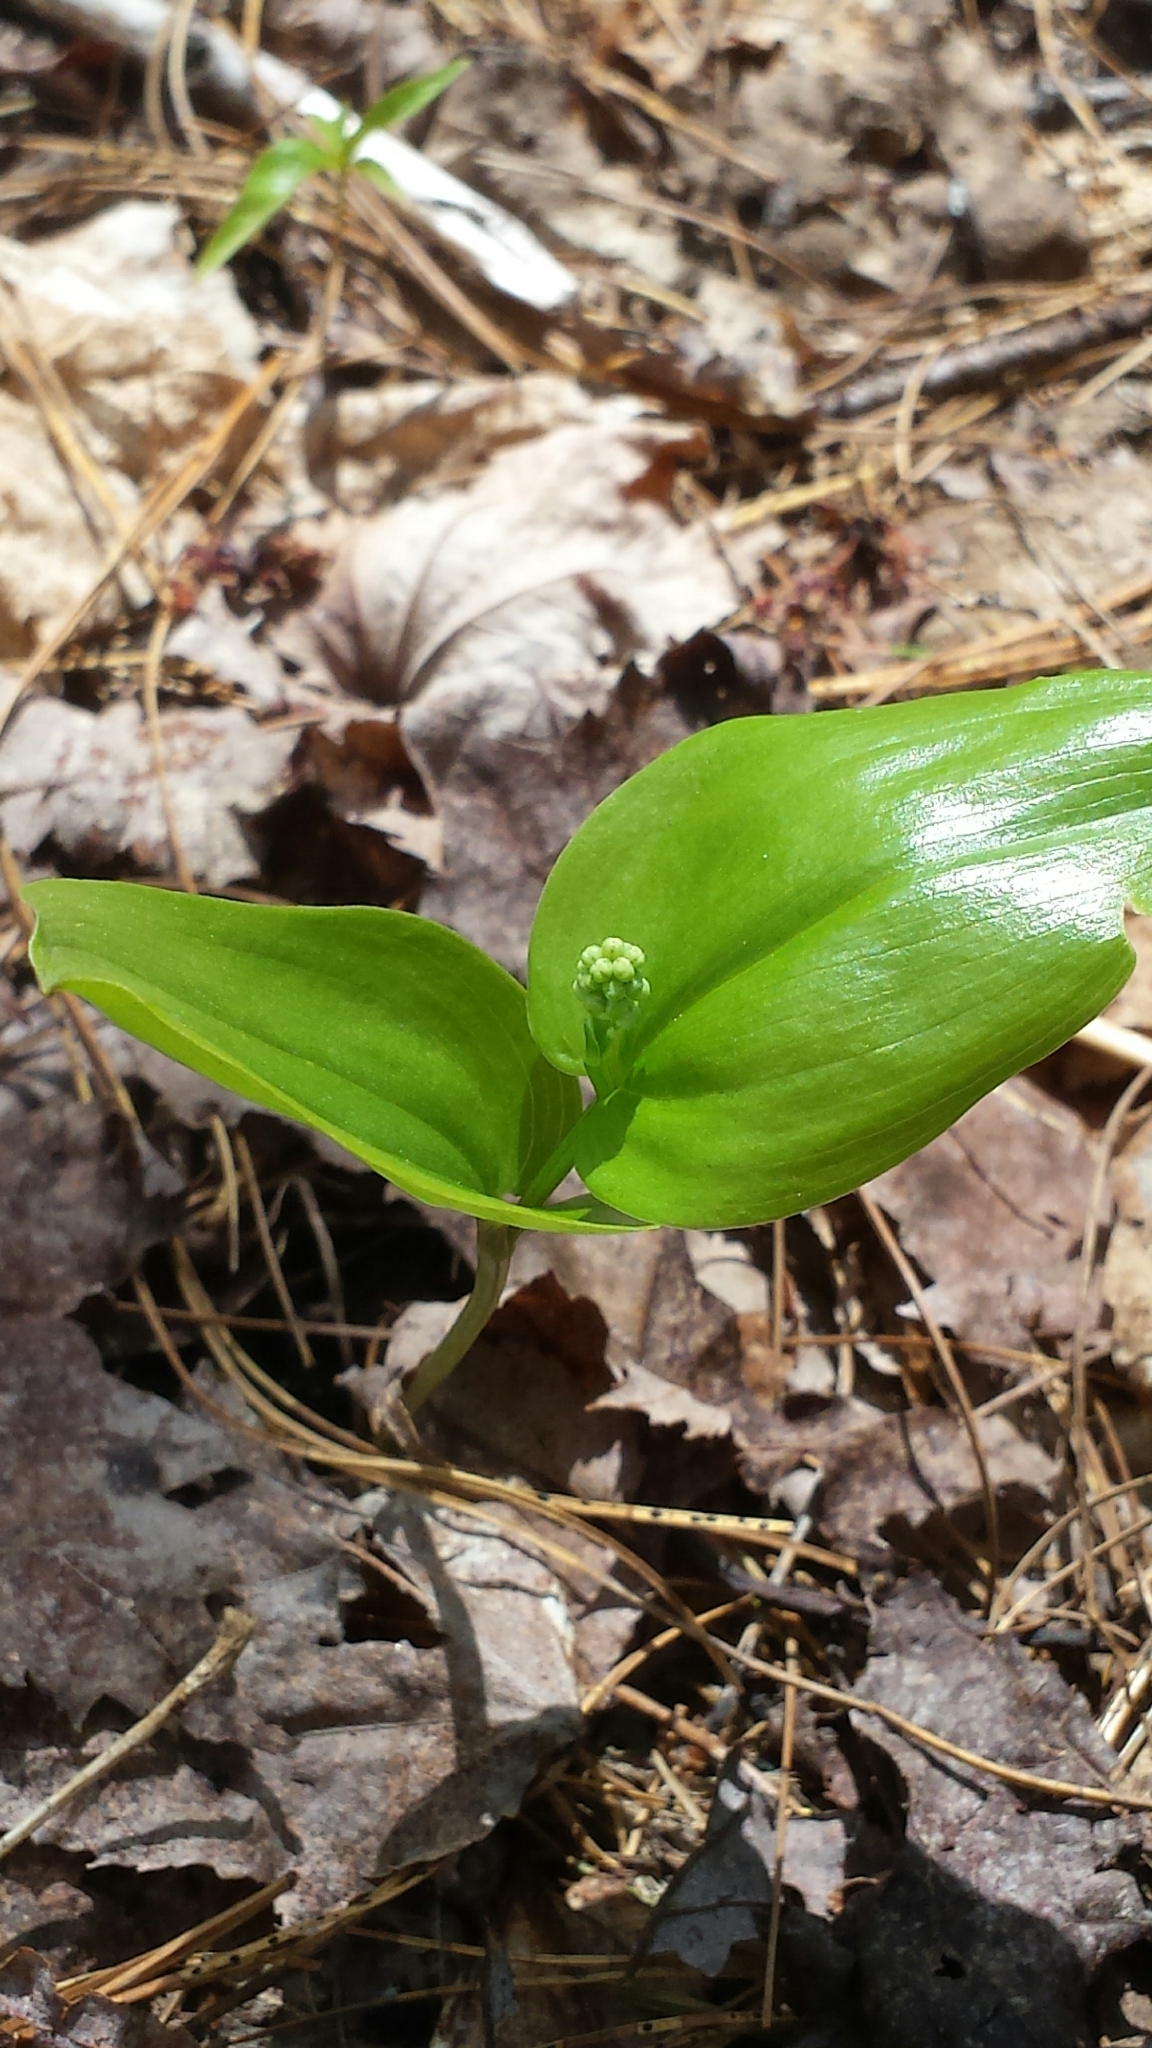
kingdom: Plantae
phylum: Tracheophyta
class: Liliopsida
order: Asparagales
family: Asparagaceae
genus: Maianthemum
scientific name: Maianthemum canadense
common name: False lily-of-the-valley
